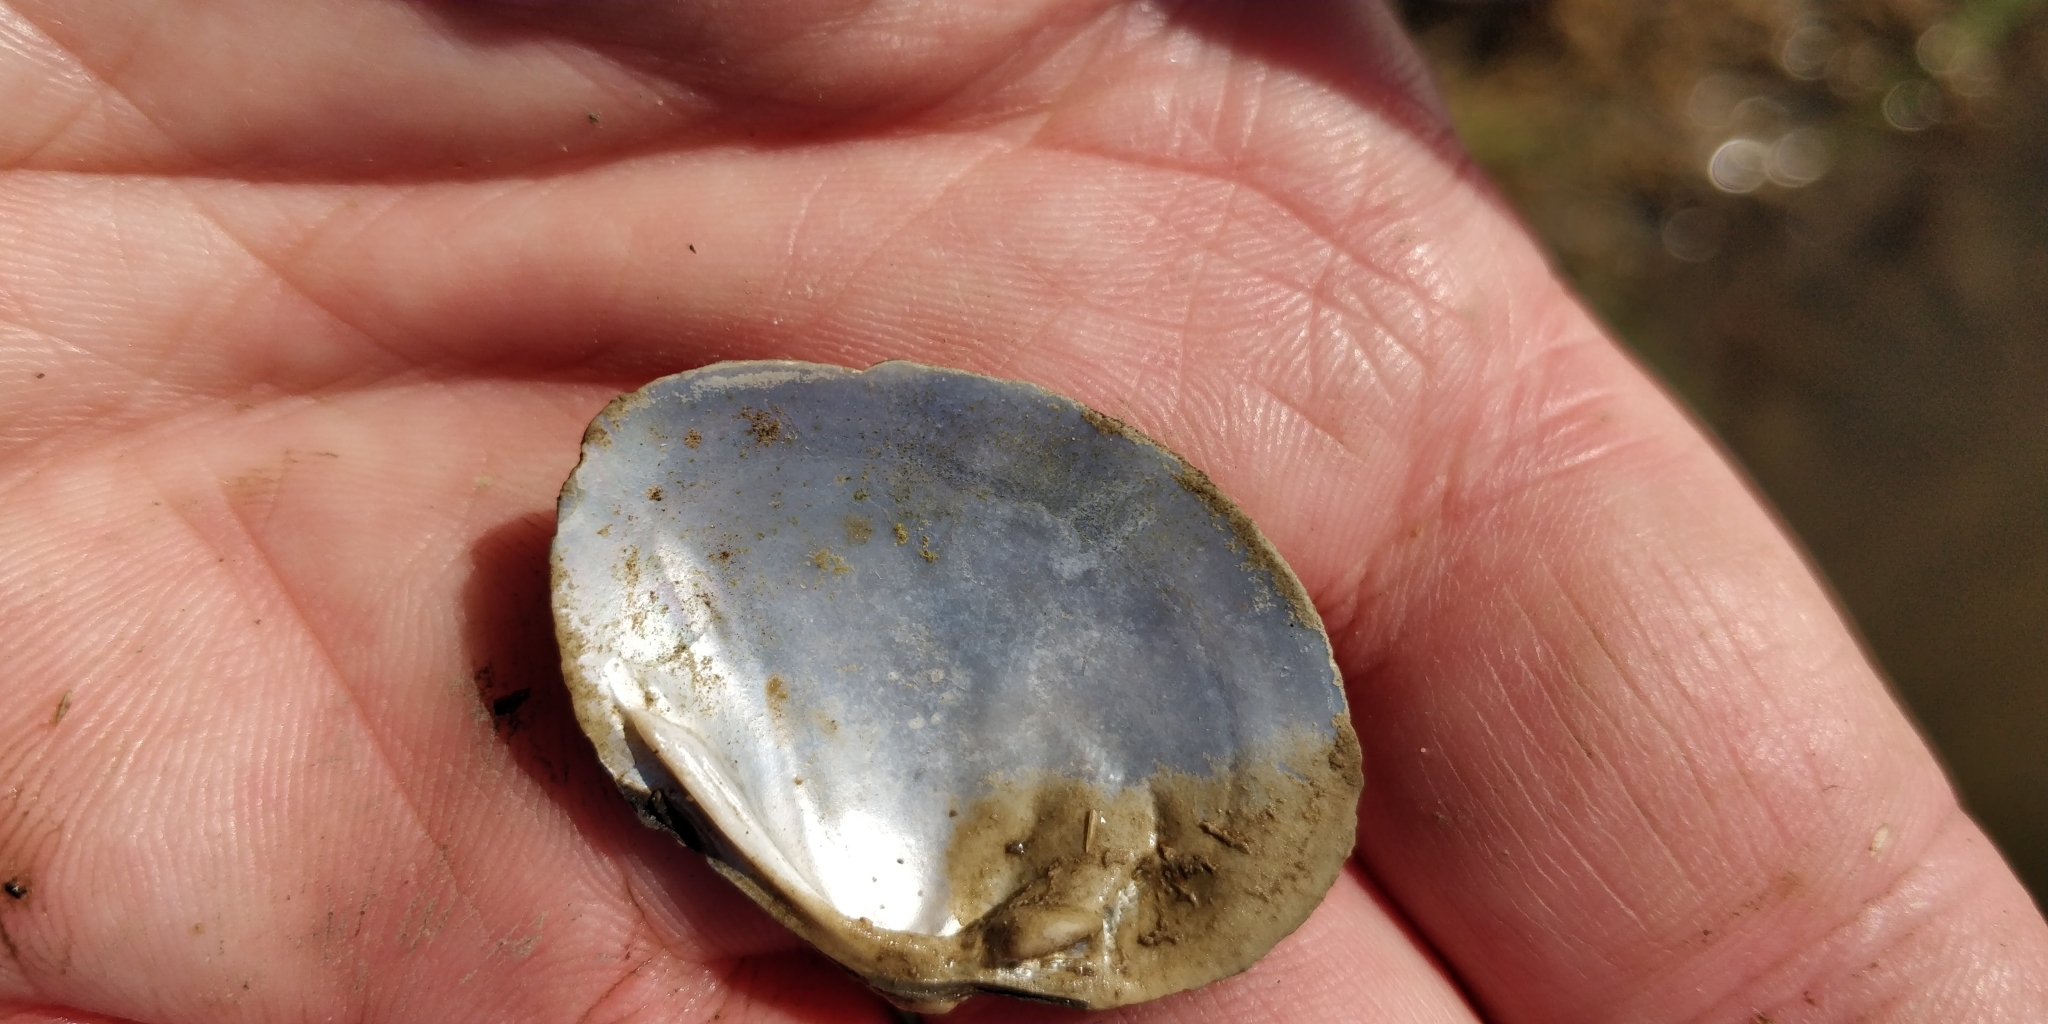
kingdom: Animalia
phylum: Mollusca
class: Bivalvia
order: Unionida
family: Unionidae
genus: Fusconaia
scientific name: Fusconaia flava
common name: Wabash pigtoe
